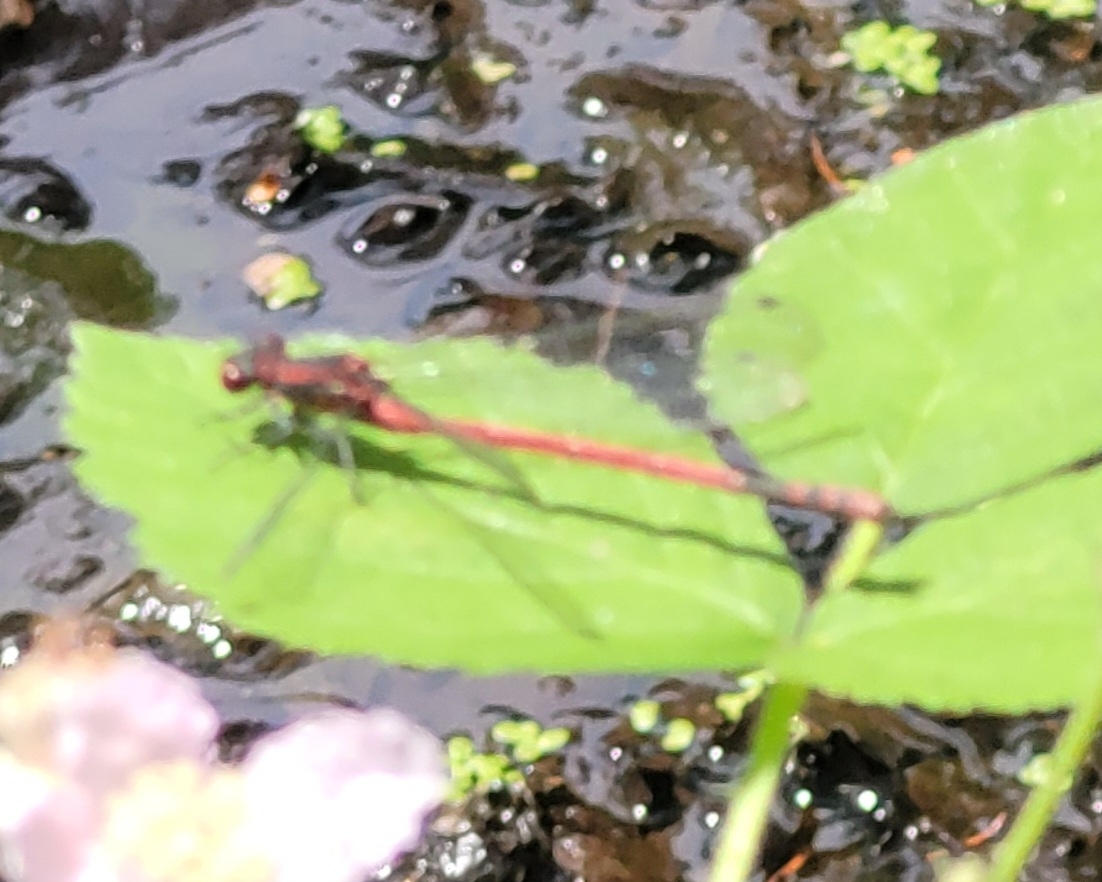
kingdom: Animalia
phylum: Arthropoda
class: Insecta
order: Odonata
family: Coenagrionidae
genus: Pyrrhosoma
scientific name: Pyrrhosoma nymphula
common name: Large red damsel
